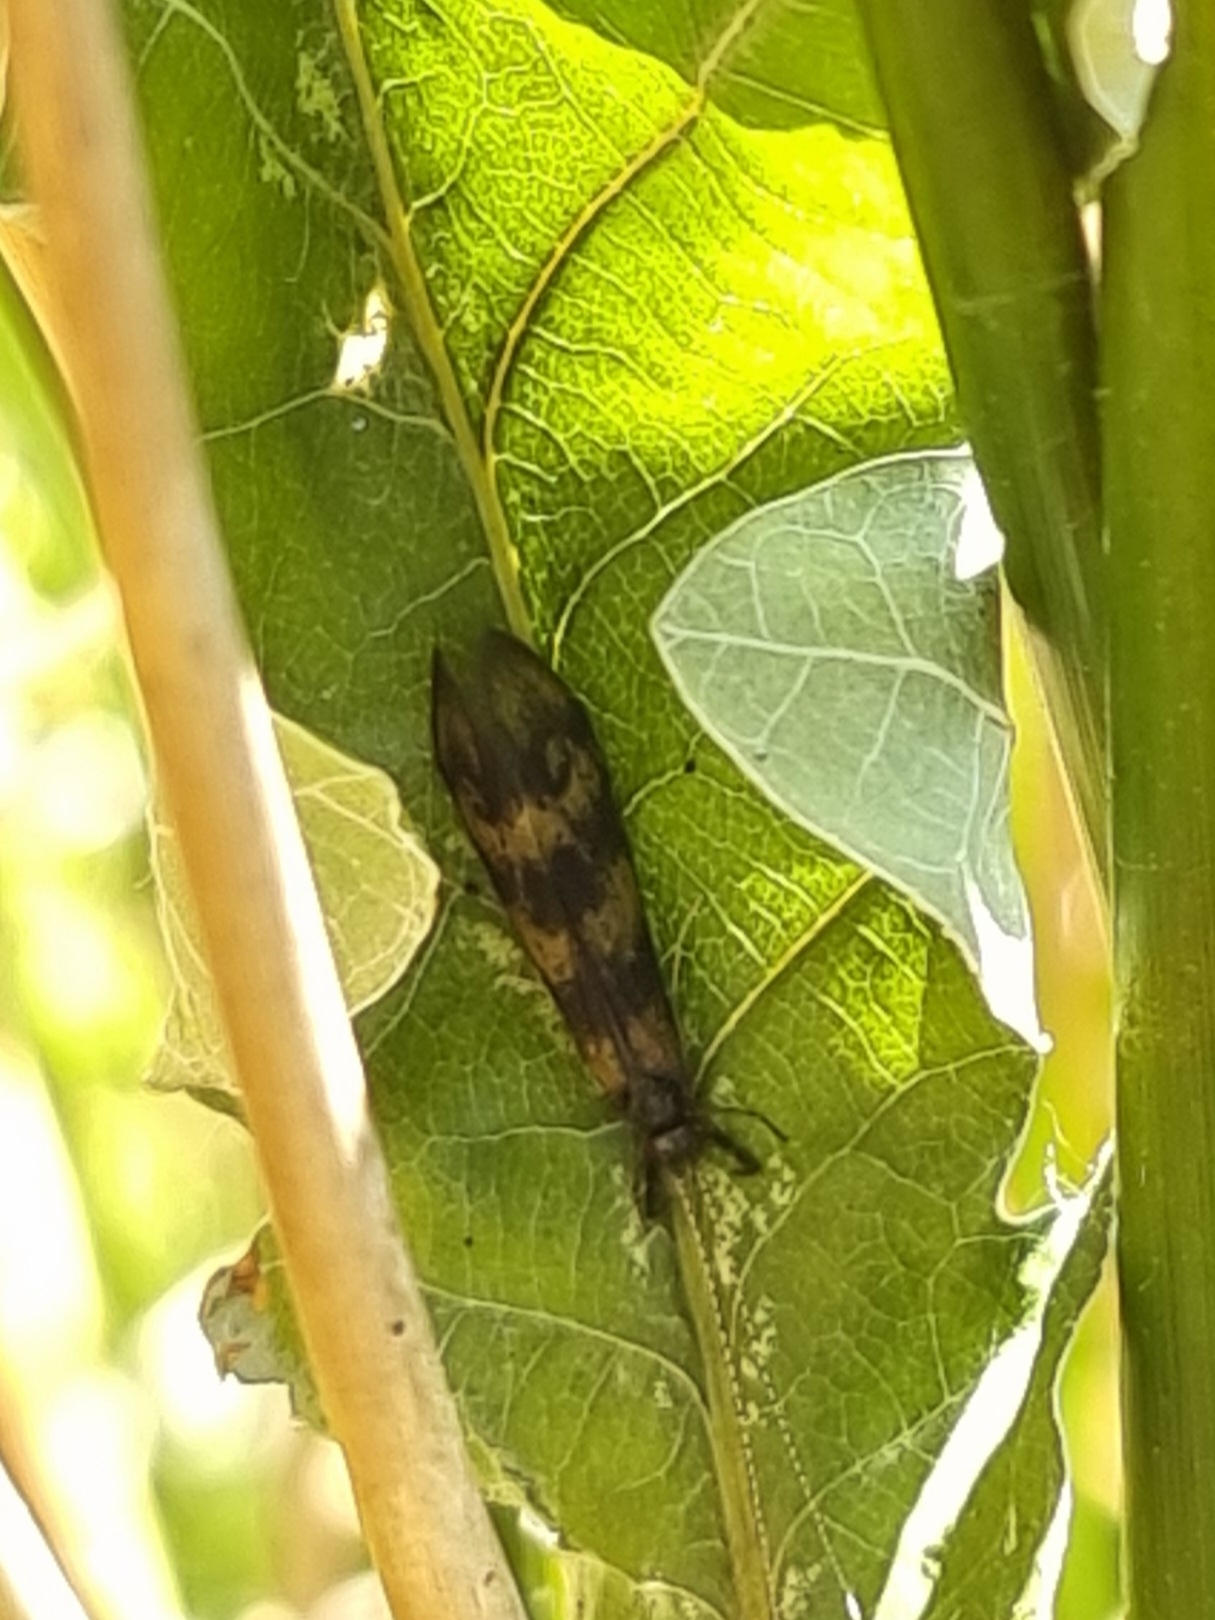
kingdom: Animalia
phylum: Arthropoda
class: Insecta
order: Trichoptera
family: Leptoceridae
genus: Mystacides
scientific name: Mystacides longicornis
